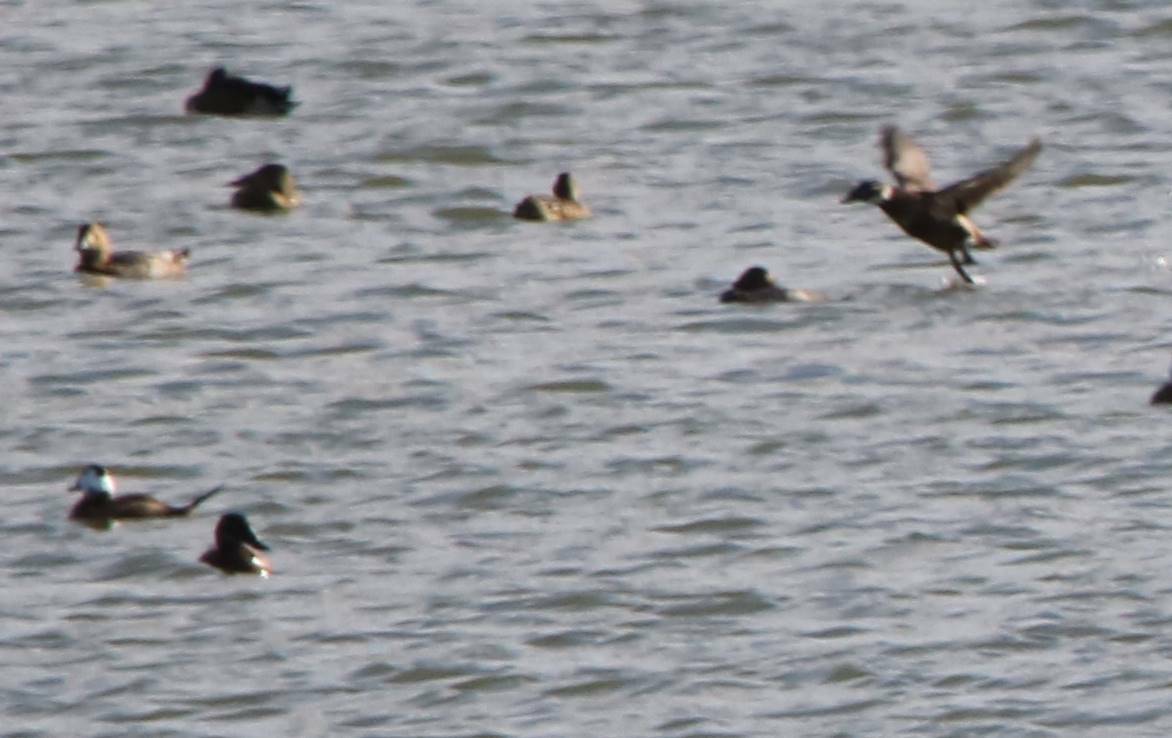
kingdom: Animalia
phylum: Chordata
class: Aves
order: Anseriformes
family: Anatidae
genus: Oxyura
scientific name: Oxyura leucocephala
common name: White-headed duck
